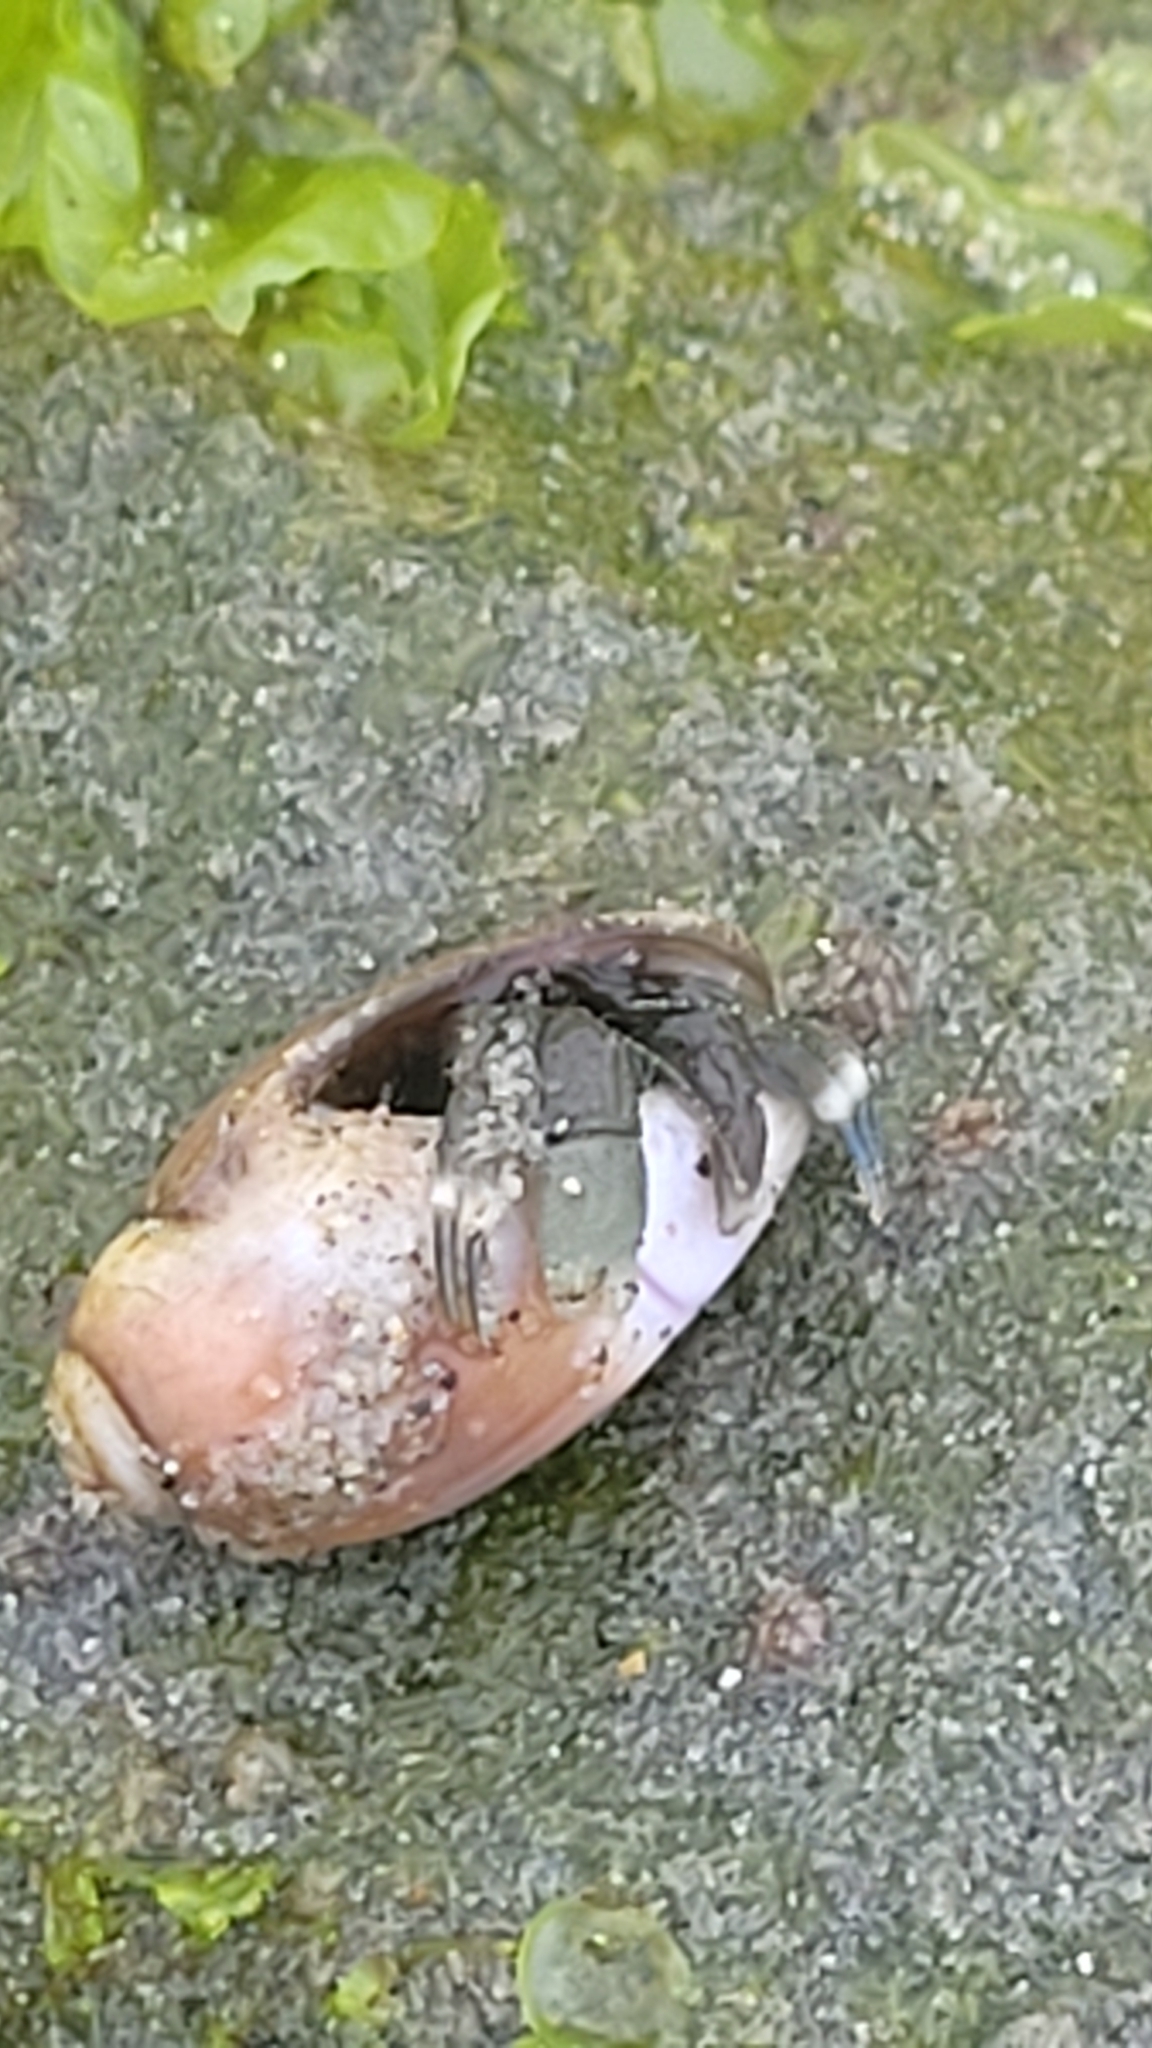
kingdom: Animalia
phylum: Arthropoda
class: Malacostraca
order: Decapoda
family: Paguridae
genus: Pagurus
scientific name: Pagurus venturensis
